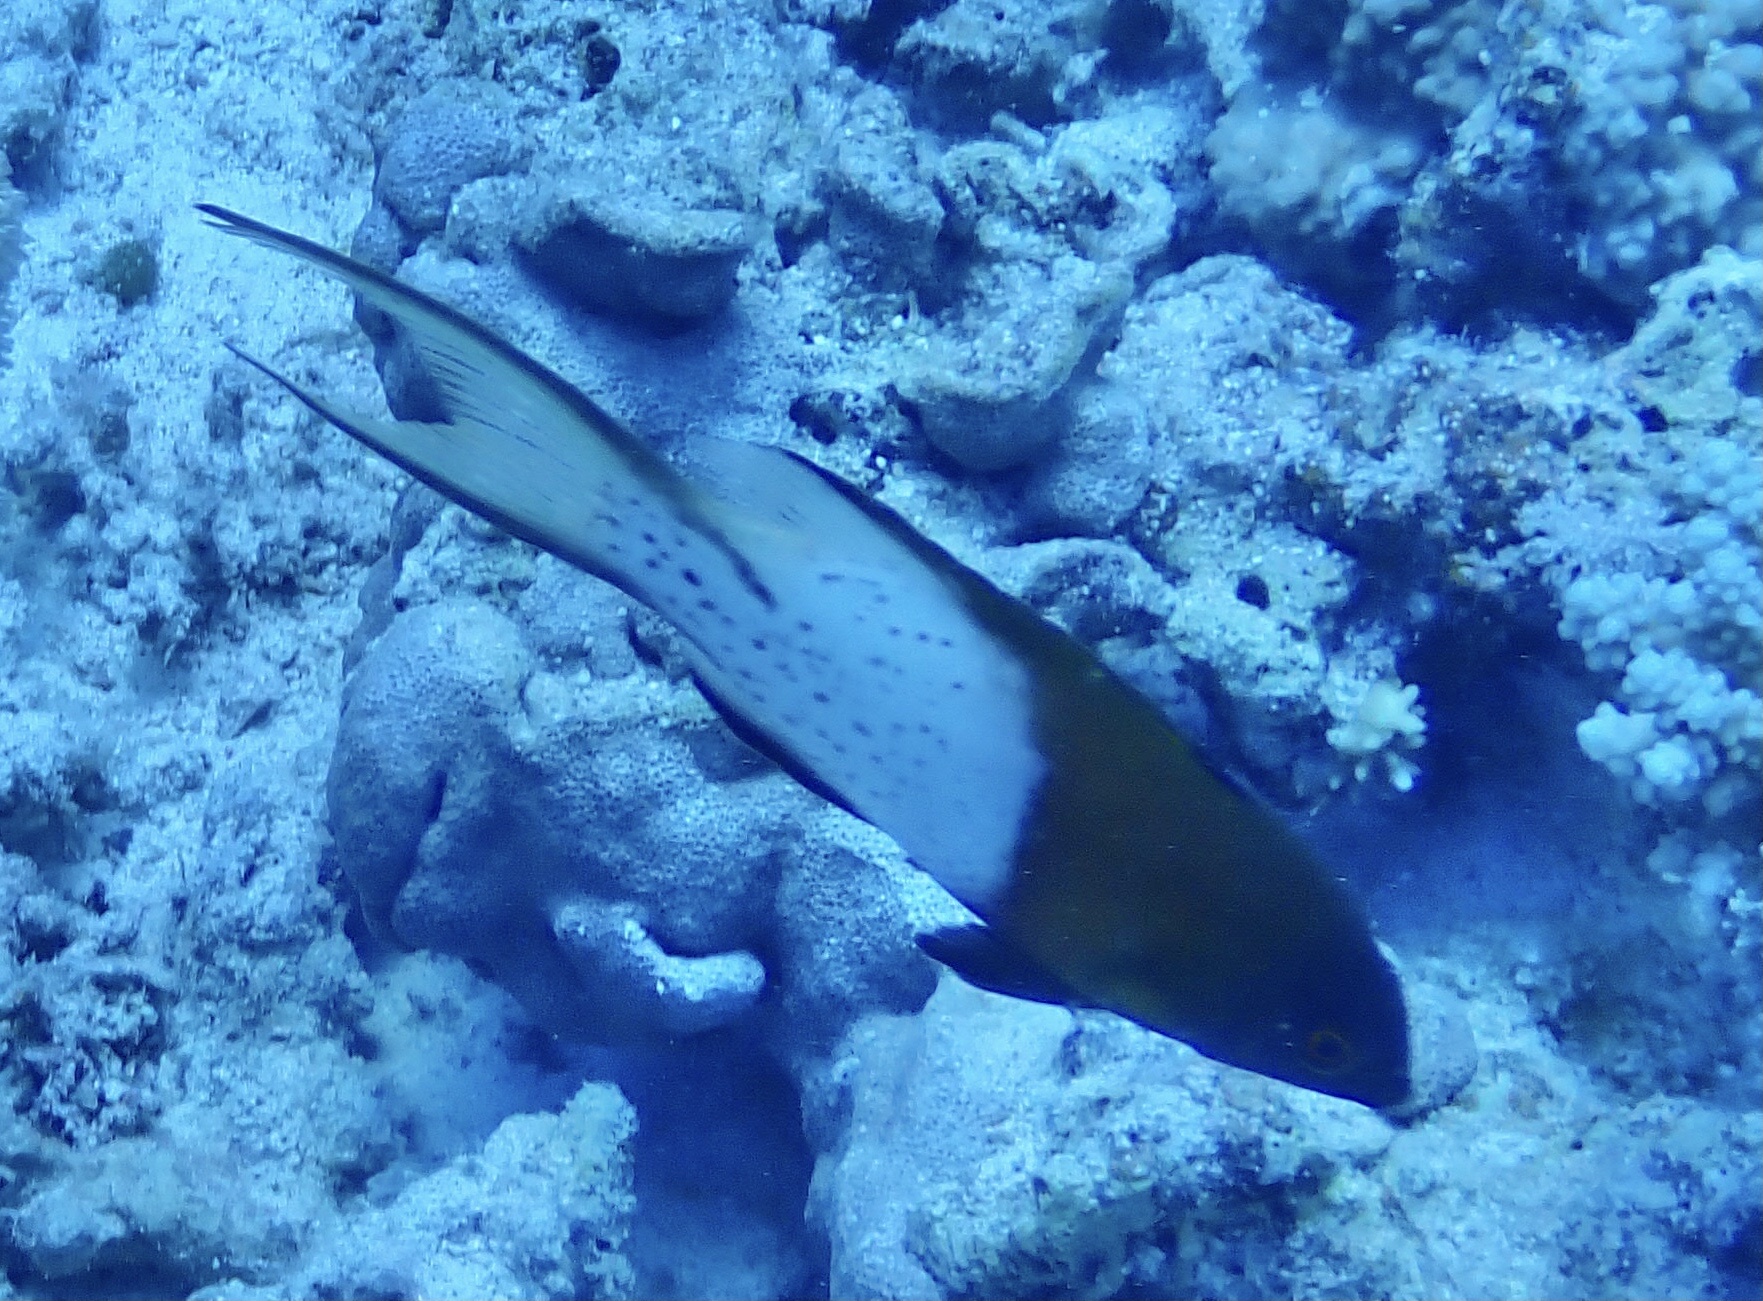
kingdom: Animalia
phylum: Chordata
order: Perciformes
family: Labridae
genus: Bodianus
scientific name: Bodianus anthioides
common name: Lyretail hogfish
